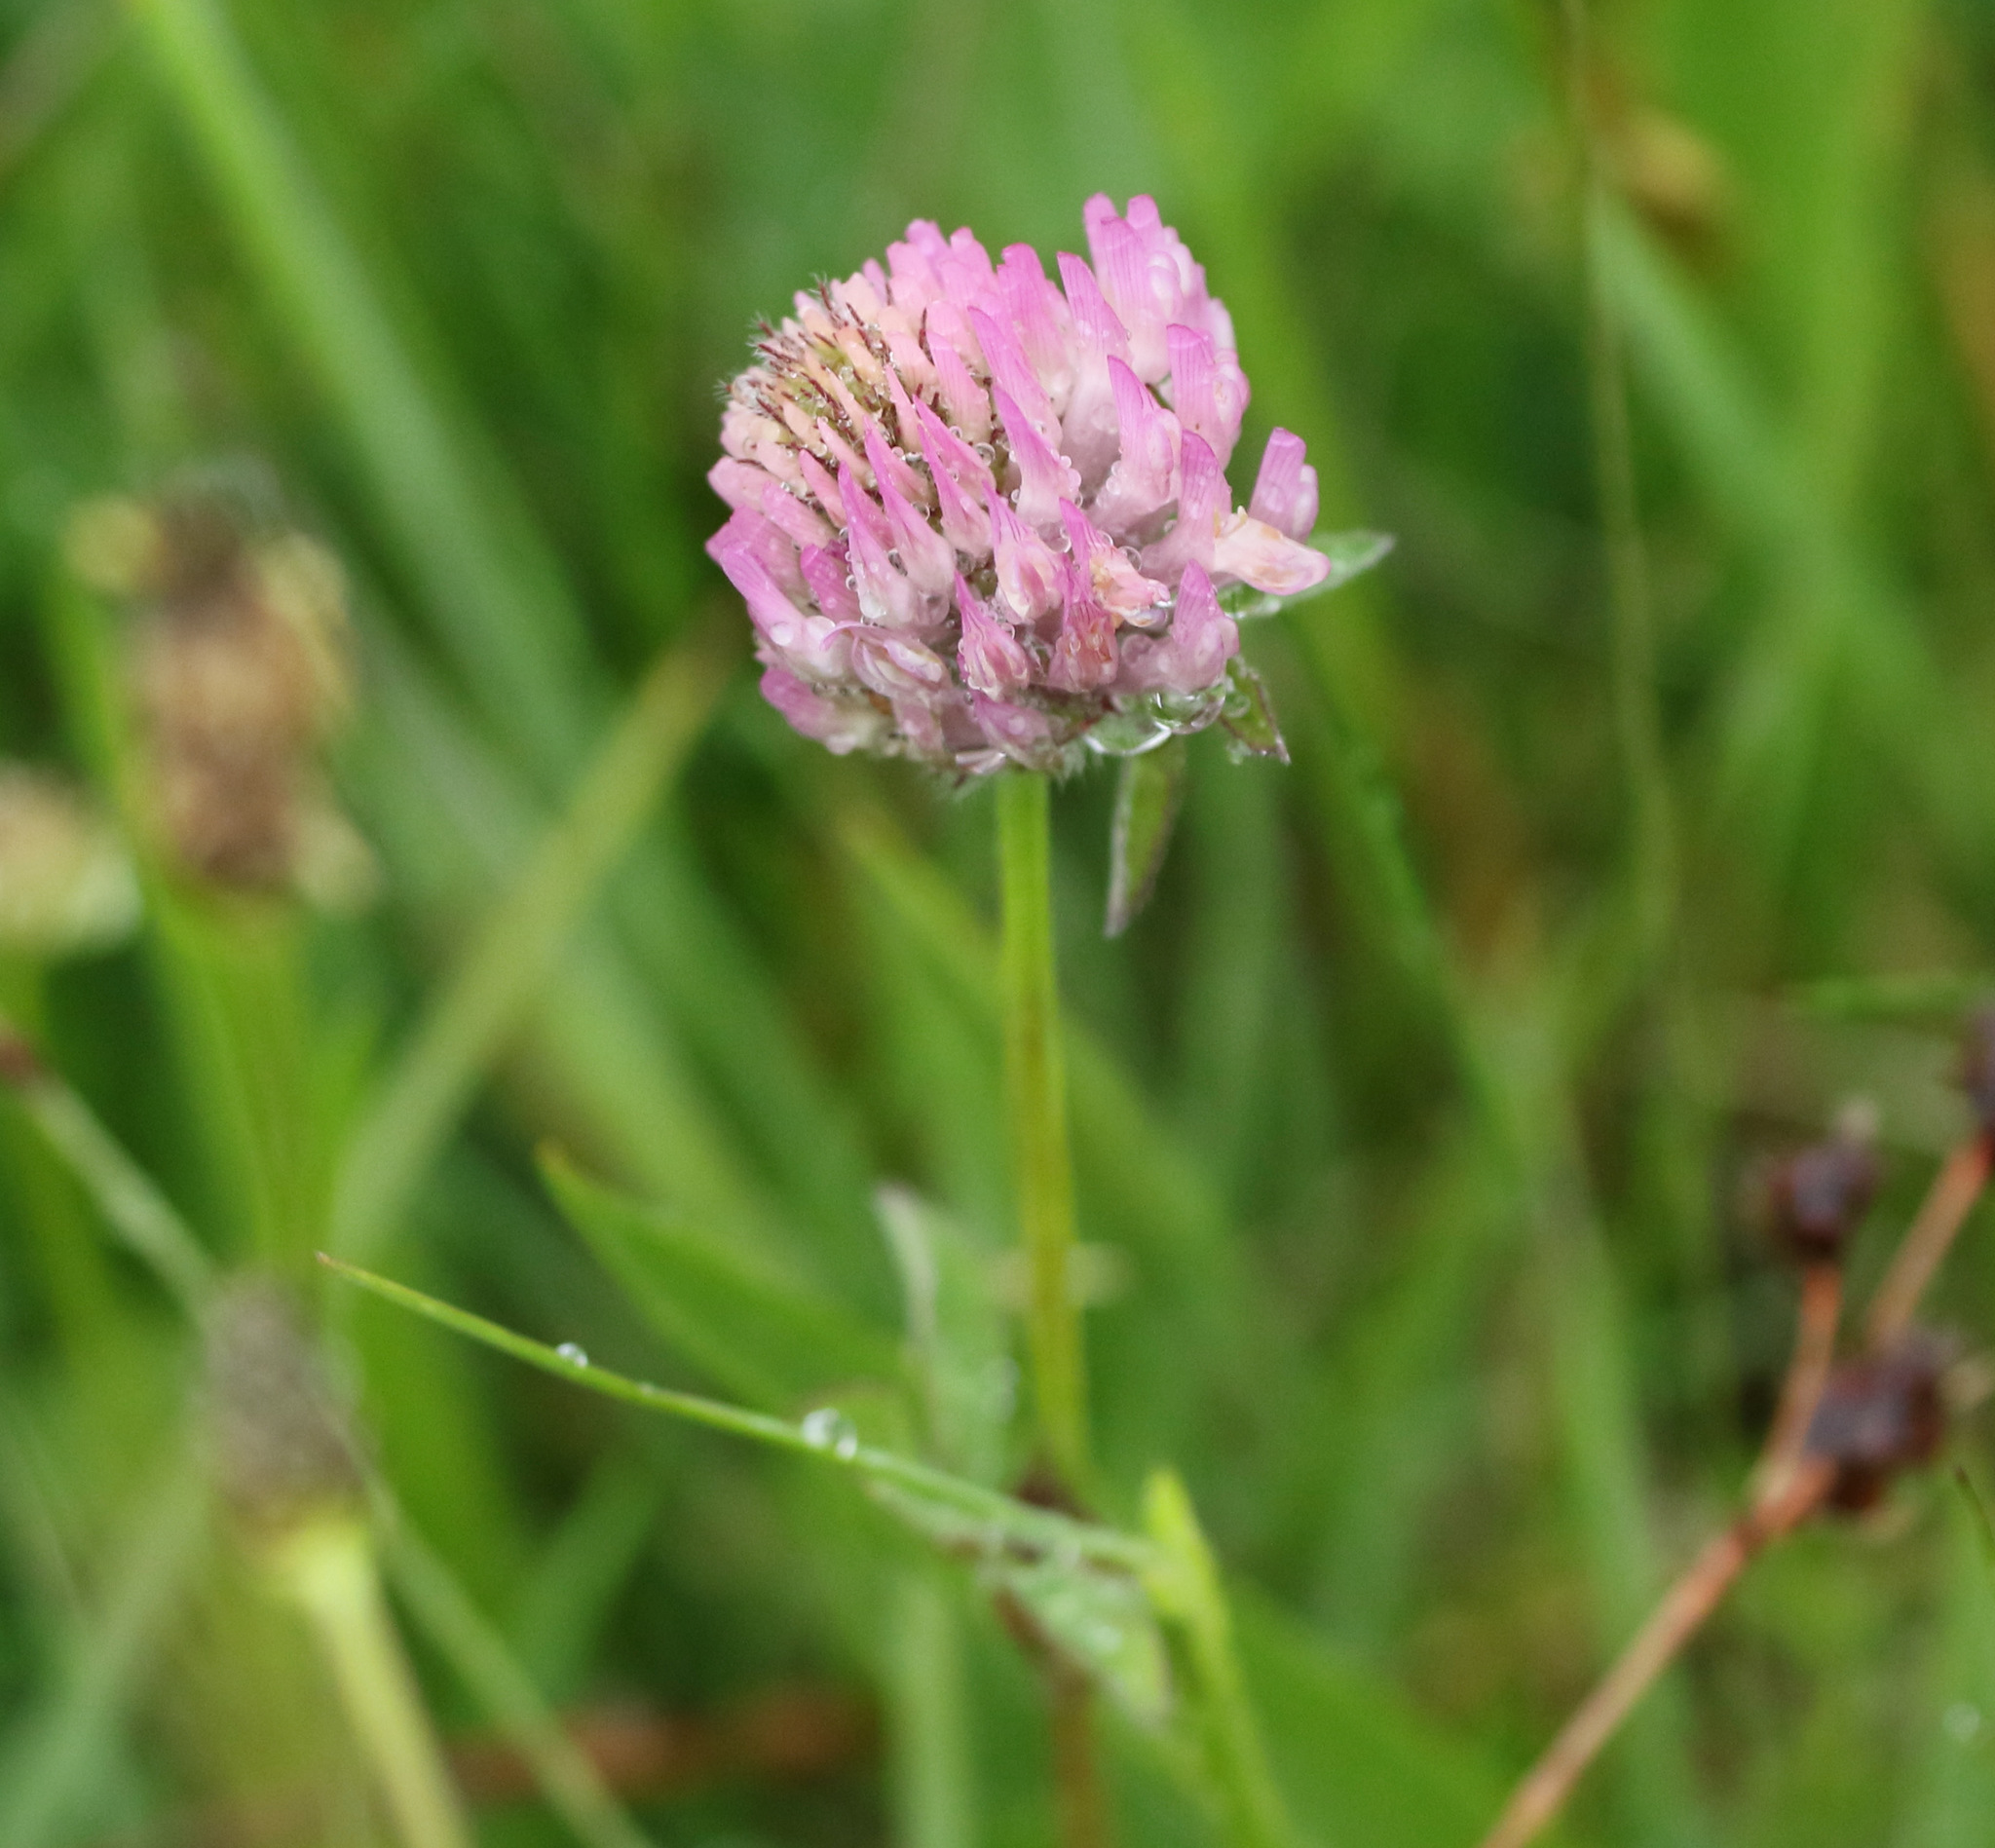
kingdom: Plantae
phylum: Tracheophyta
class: Magnoliopsida
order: Fabales
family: Fabaceae
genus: Trifolium
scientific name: Trifolium pratense
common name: Red clover
